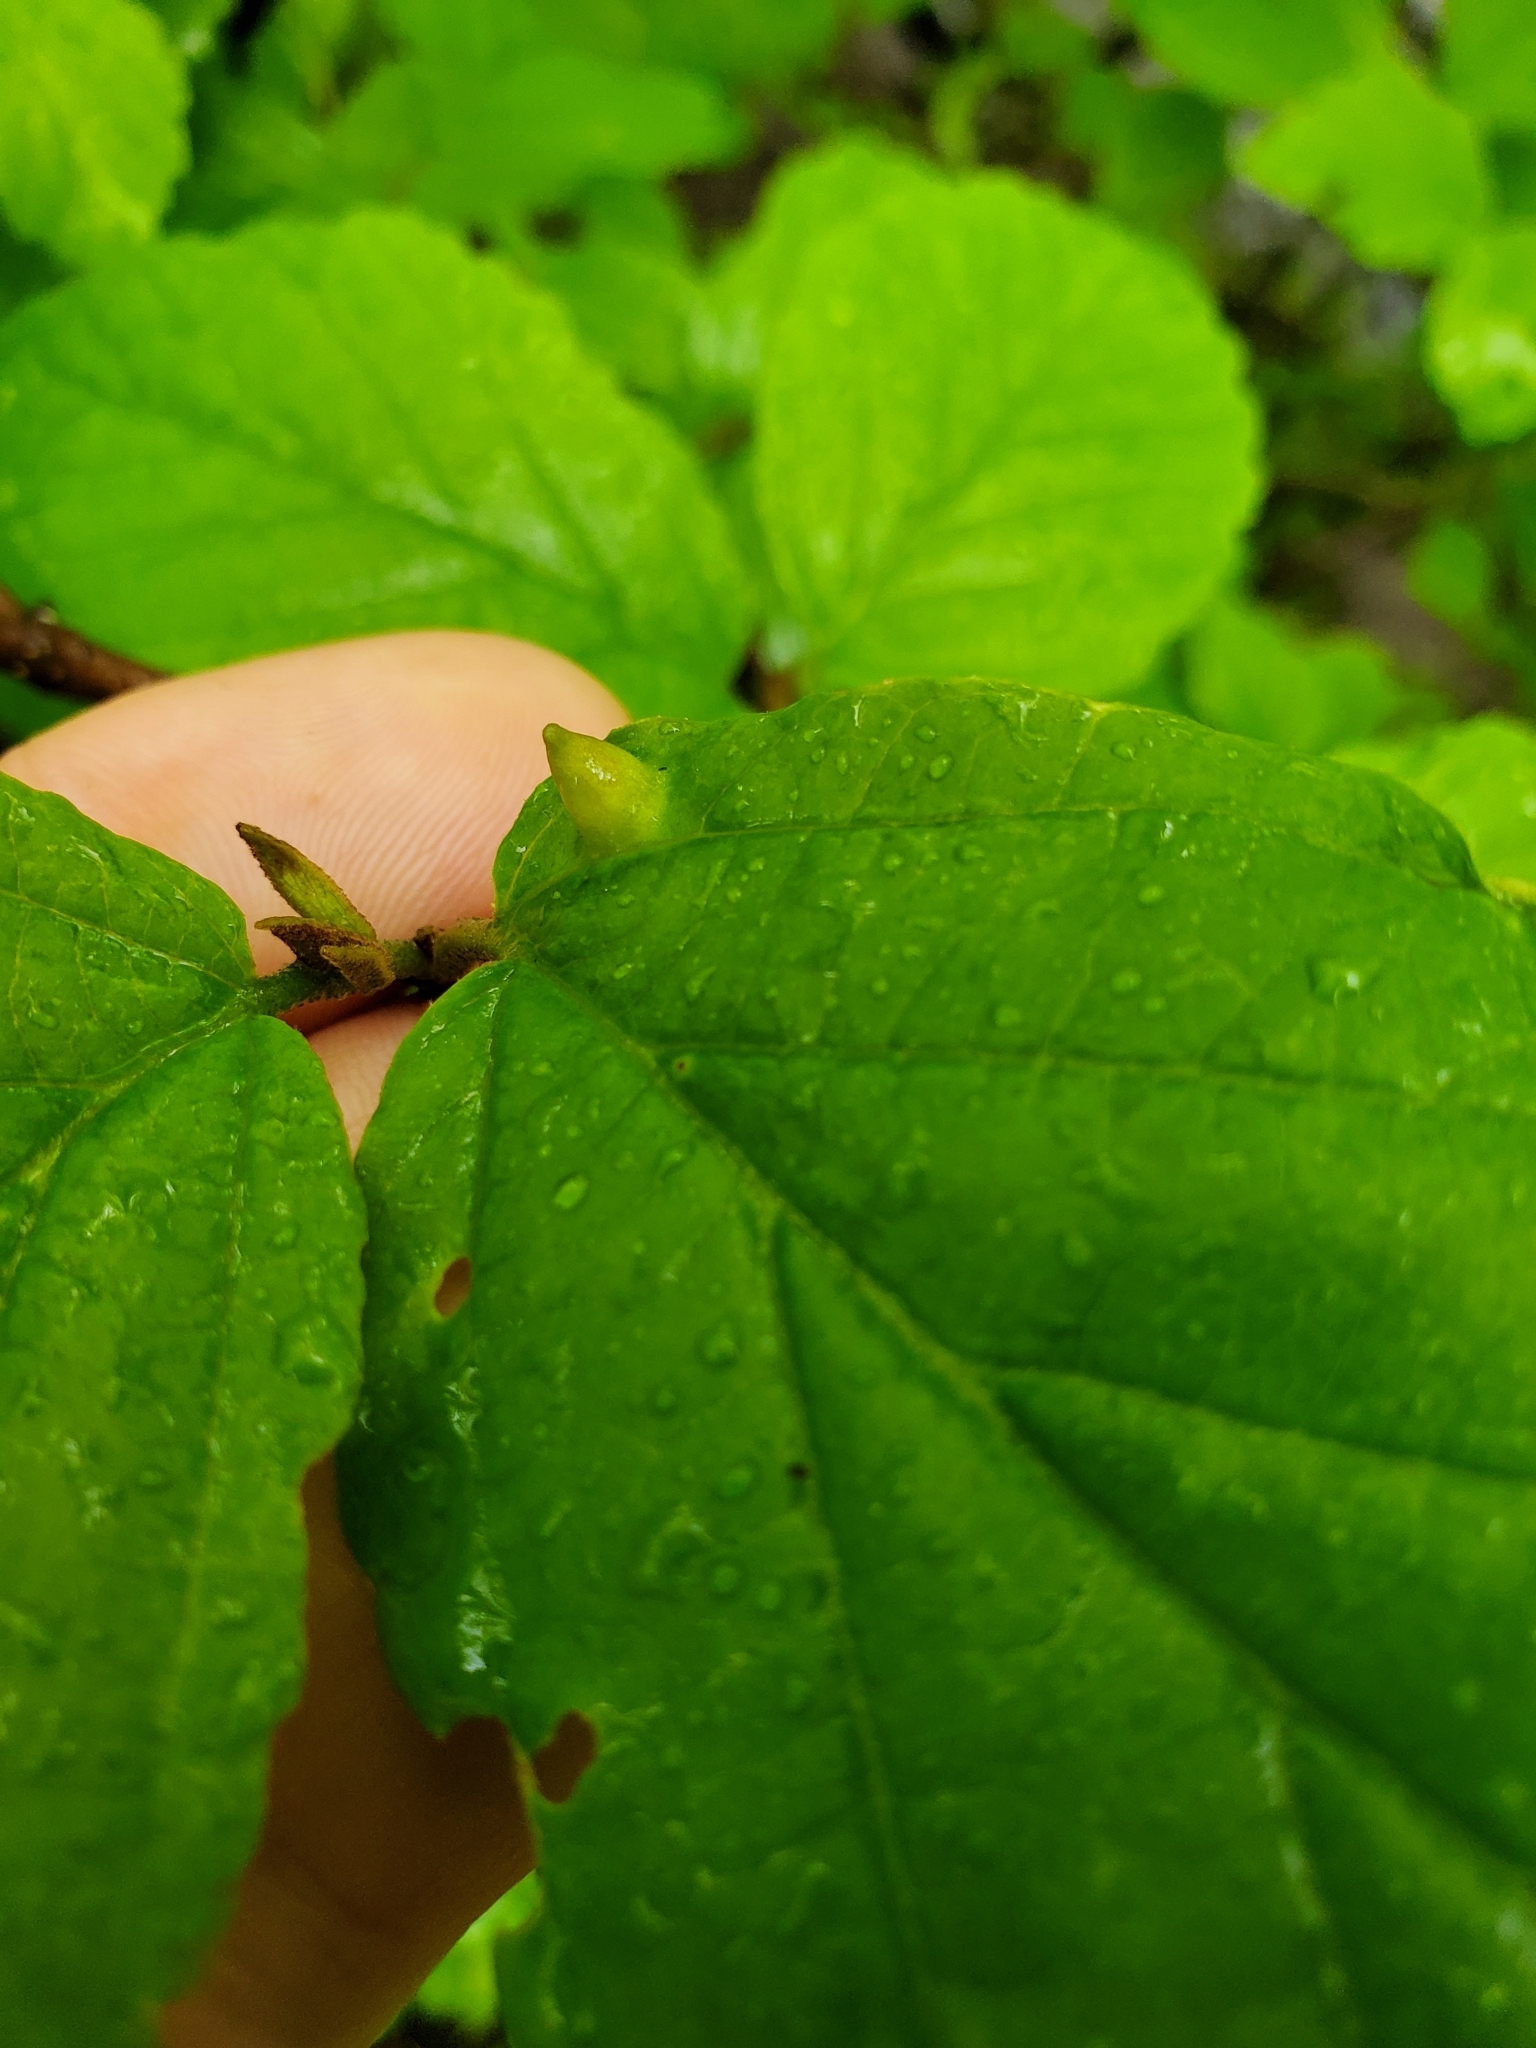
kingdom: Animalia
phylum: Arthropoda
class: Insecta
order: Hemiptera
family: Aphididae
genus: Hormaphis
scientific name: Hormaphis hamamelidis
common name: Witch-hazel cone gall aphid
